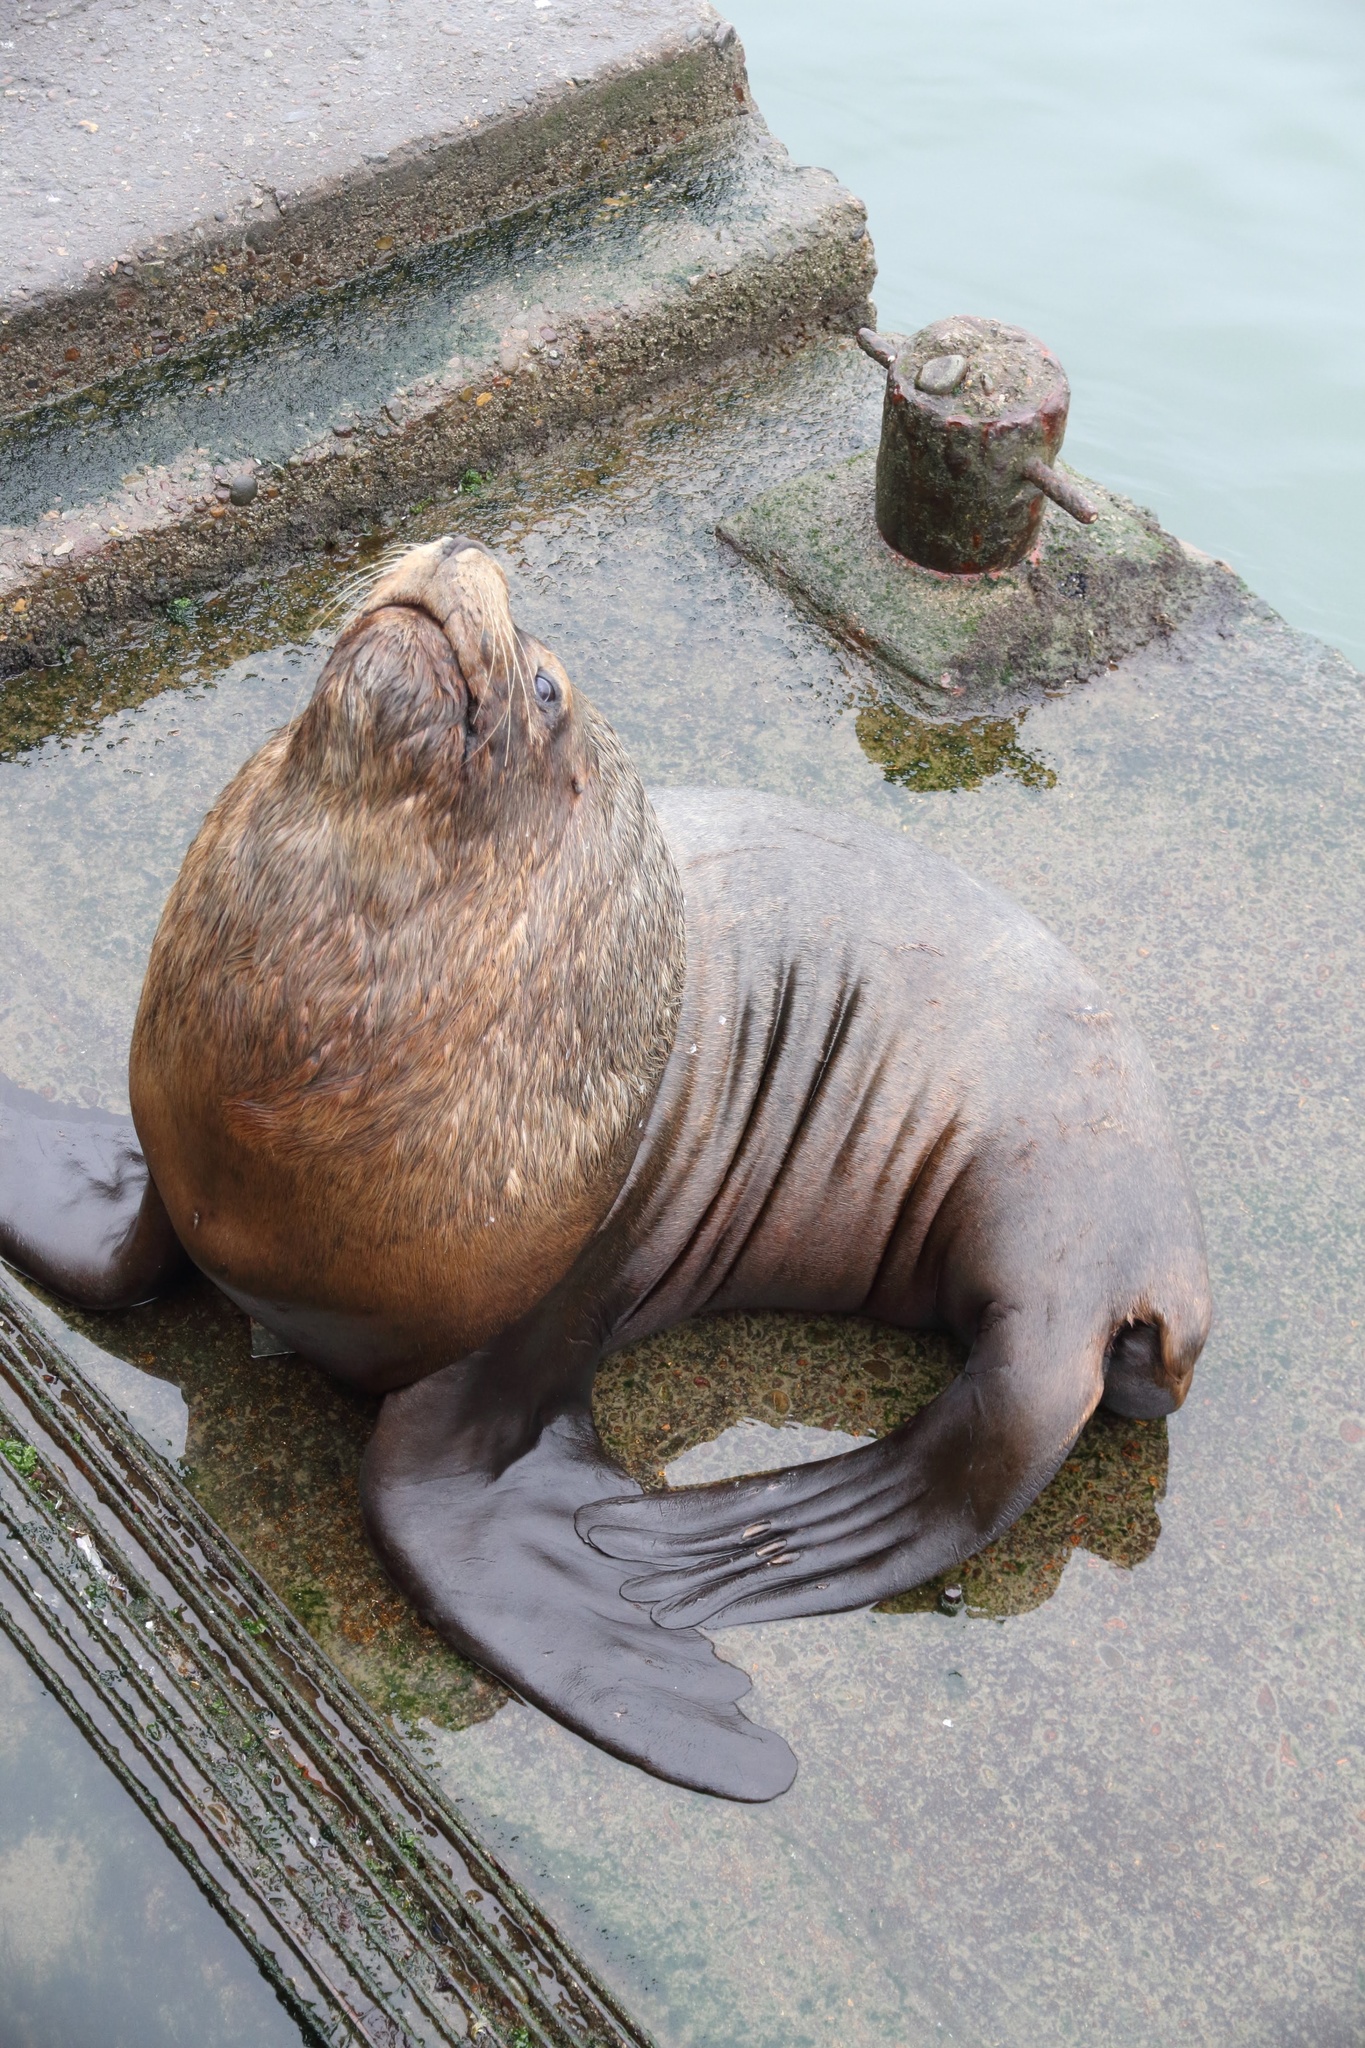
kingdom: Animalia
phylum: Chordata
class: Mammalia
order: Carnivora
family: Otariidae
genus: Otaria
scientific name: Otaria byronia
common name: South american sea lion
